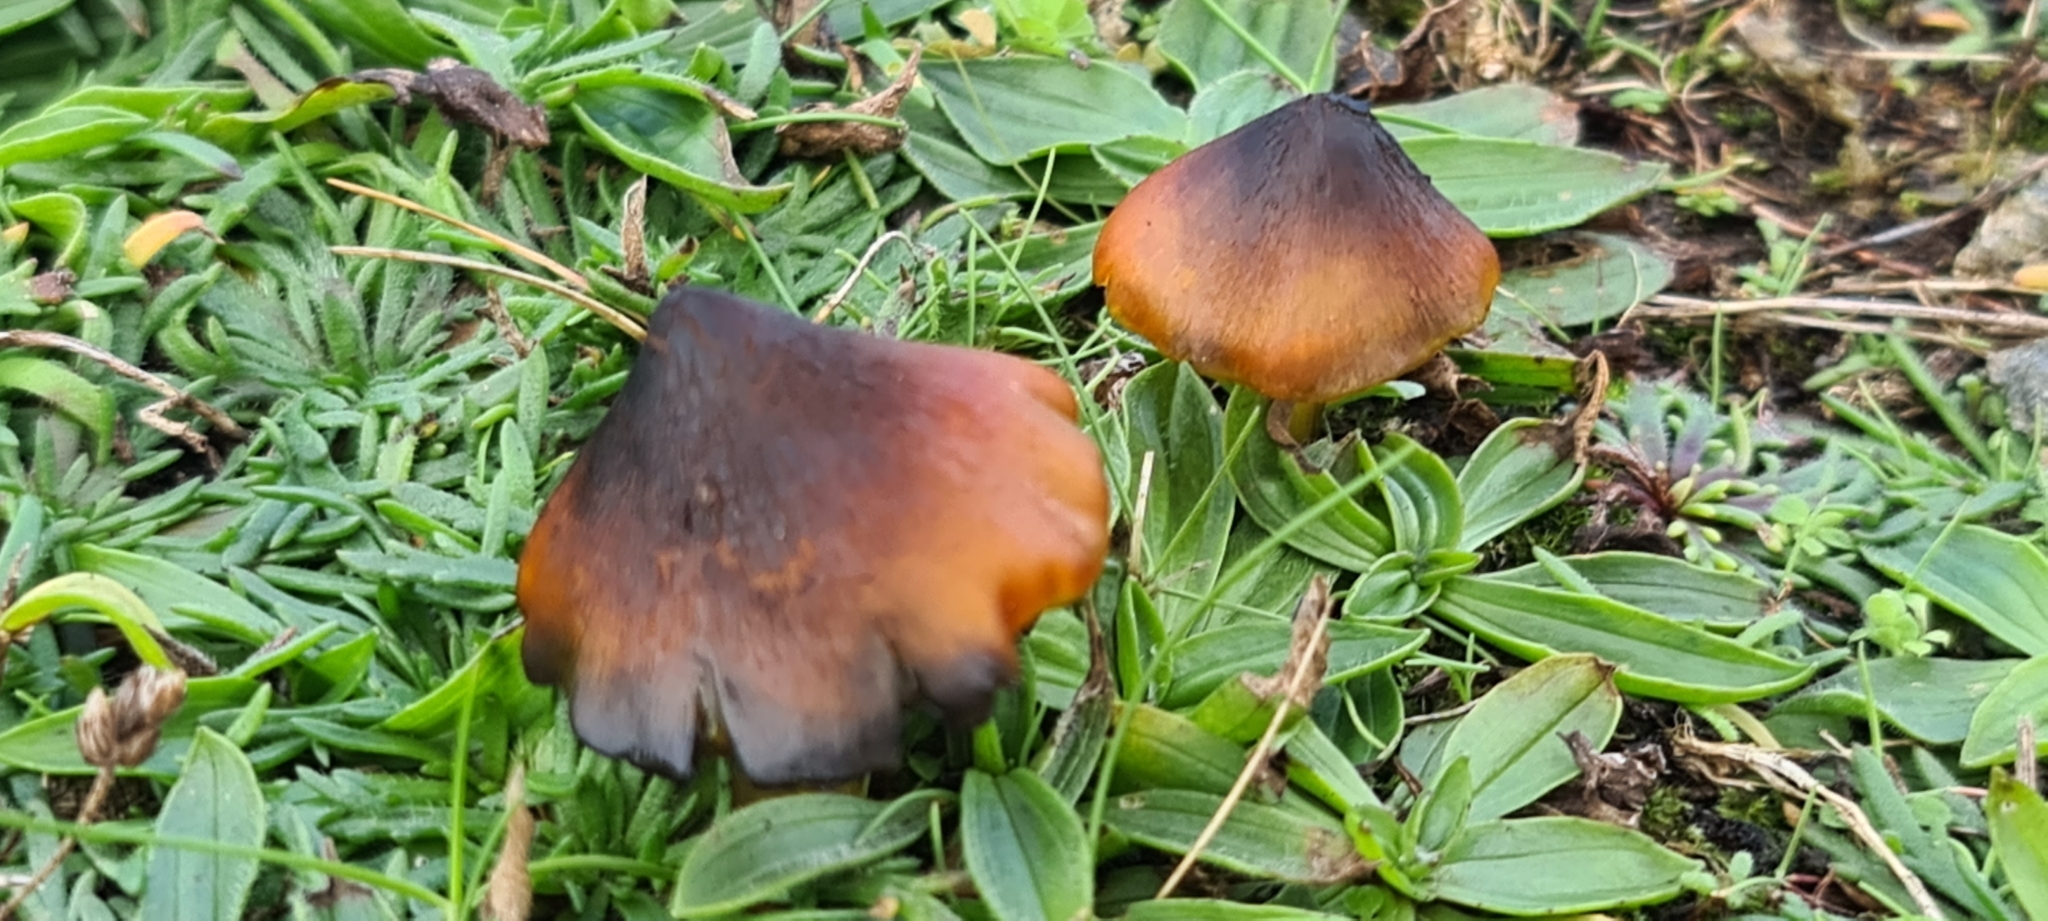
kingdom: Fungi
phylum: Basidiomycota
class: Agaricomycetes
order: Agaricales
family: Hygrophoraceae
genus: Hygrocybe
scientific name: Hygrocybe nigrescens
